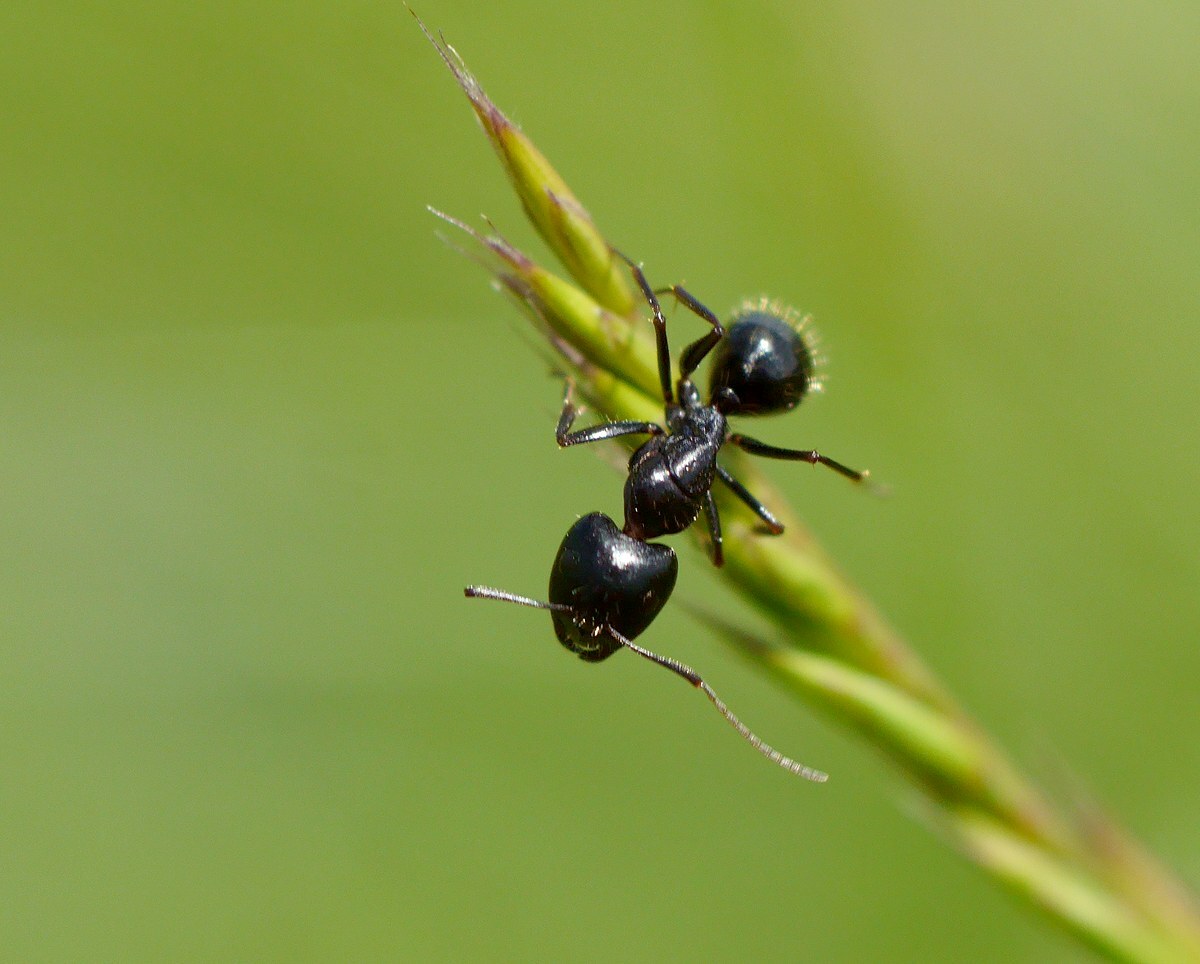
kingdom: Animalia
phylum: Arthropoda
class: Insecta
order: Hymenoptera
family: Formicidae
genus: Camponotus
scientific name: Camponotus aethiops
